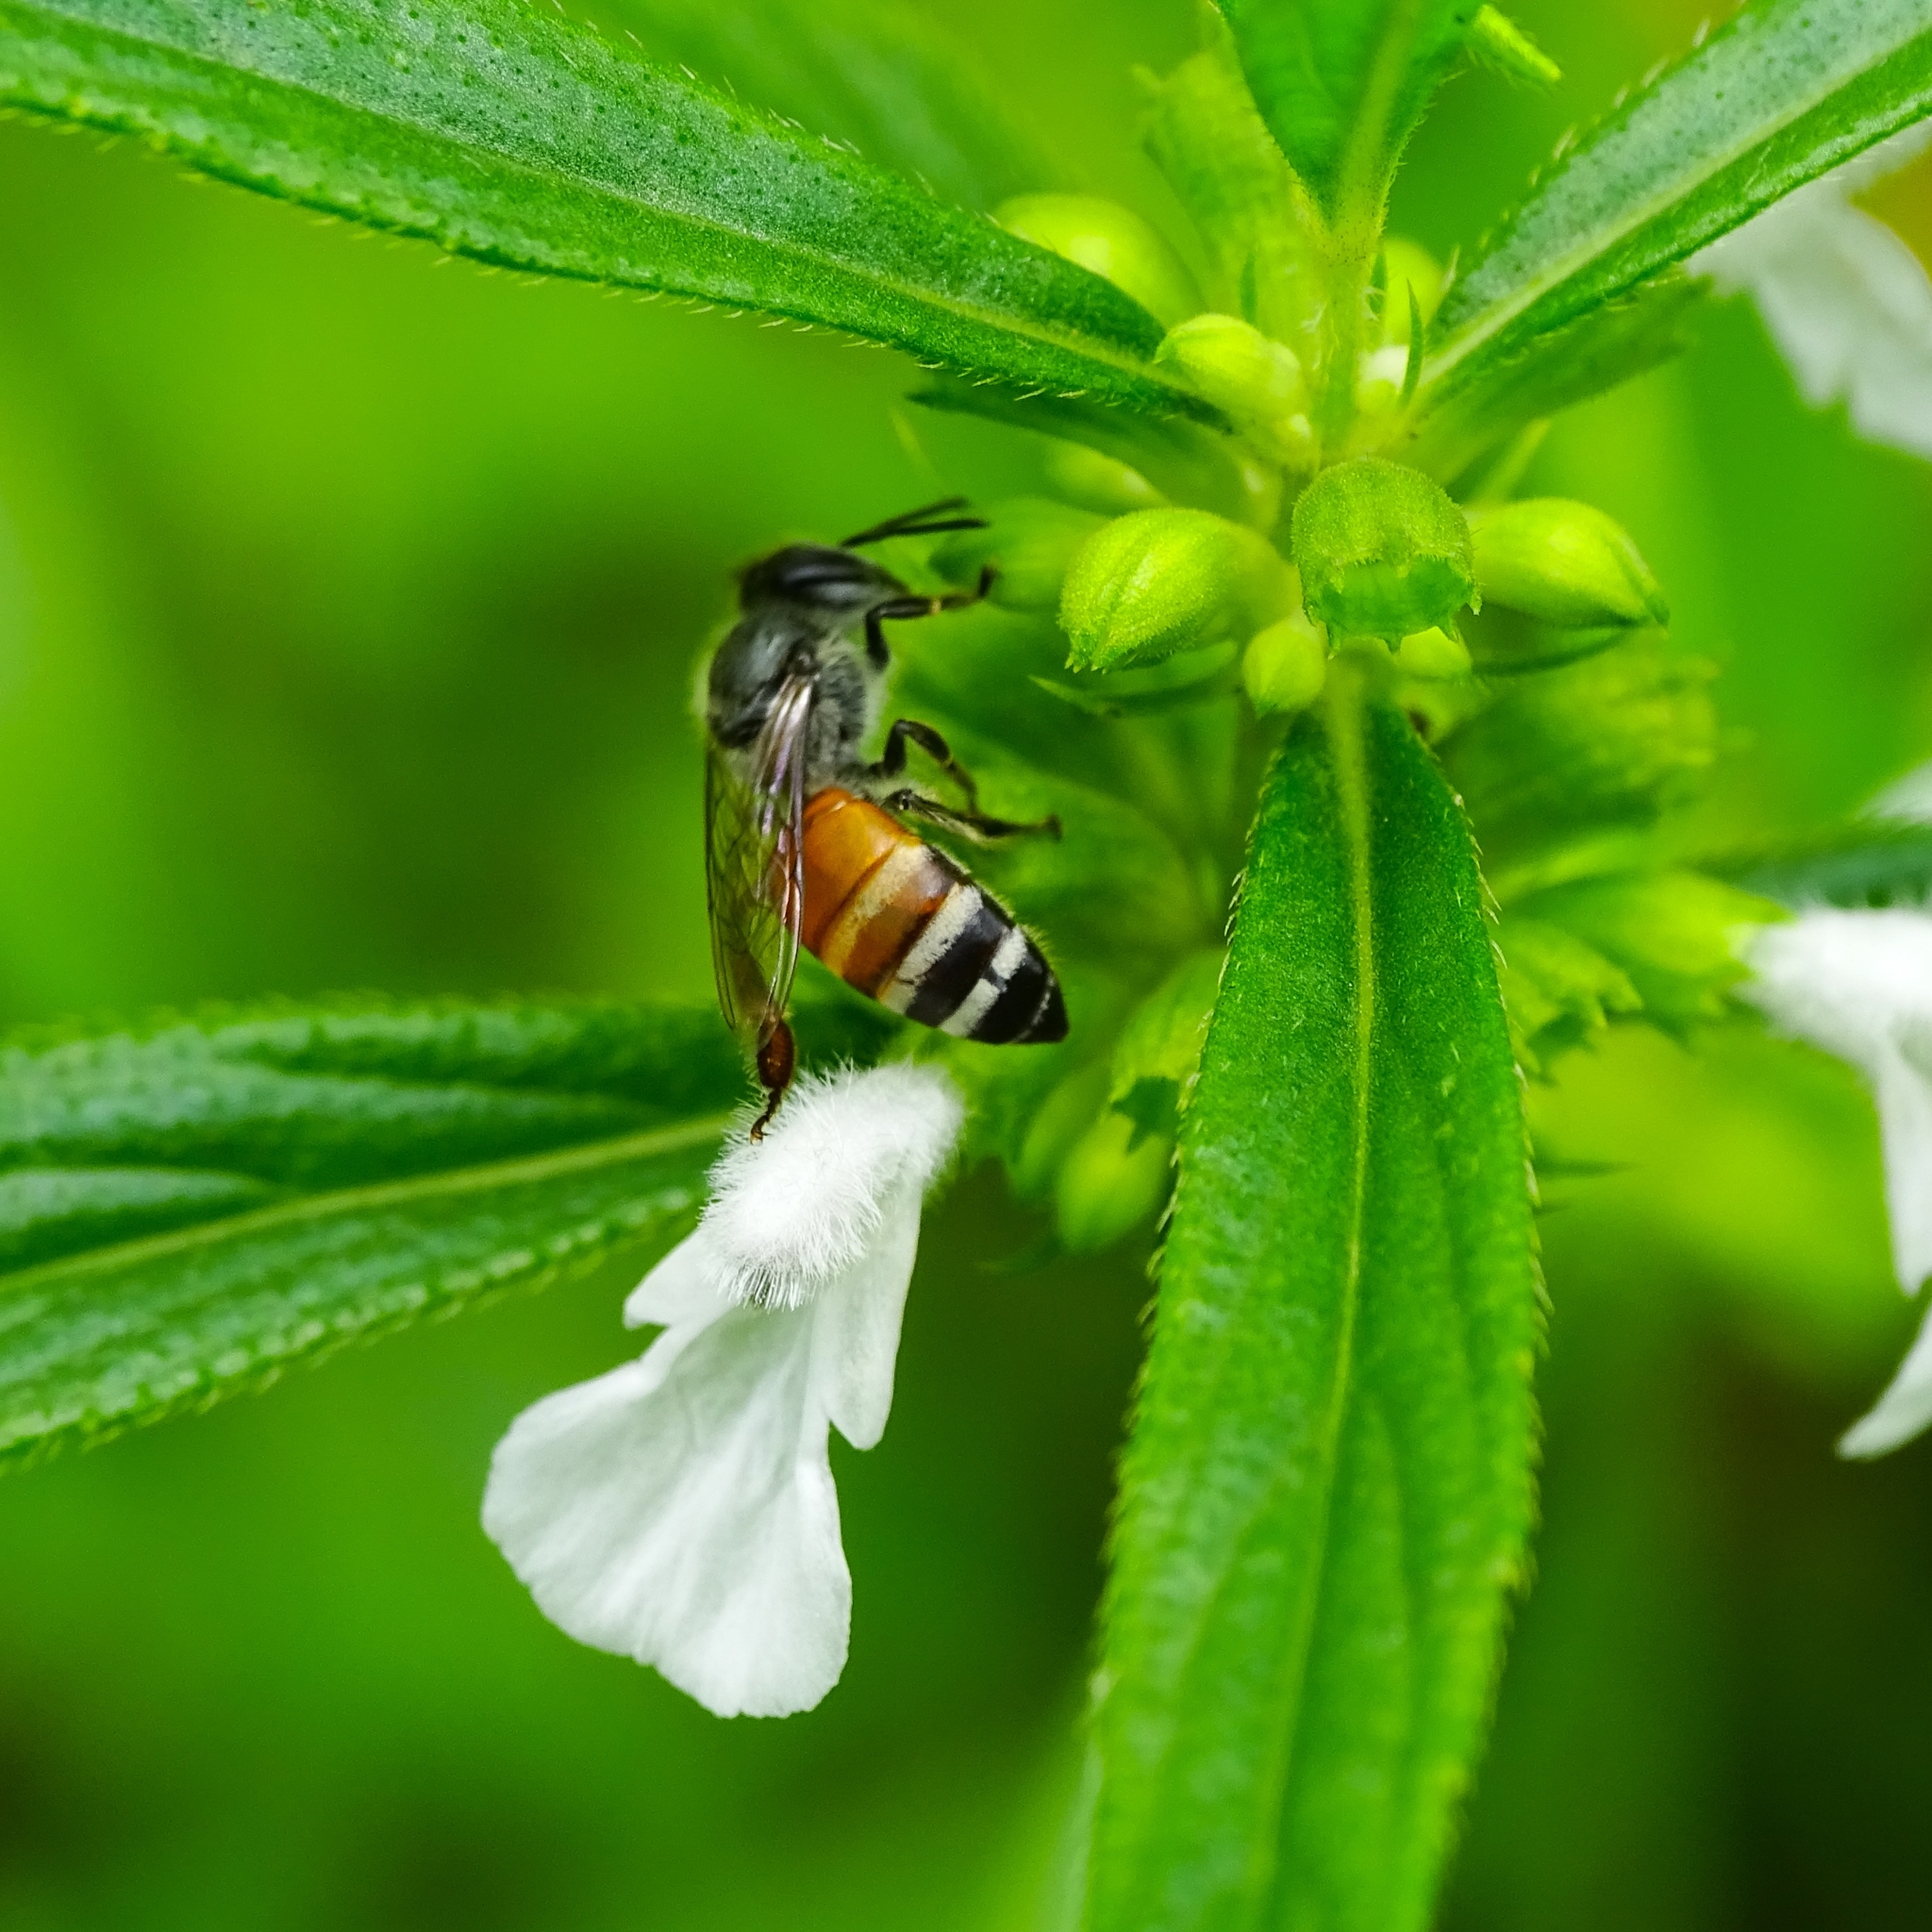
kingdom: Animalia
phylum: Arthropoda
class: Insecta
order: Hymenoptera
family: Apidae
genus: Apis
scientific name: Apis florea
